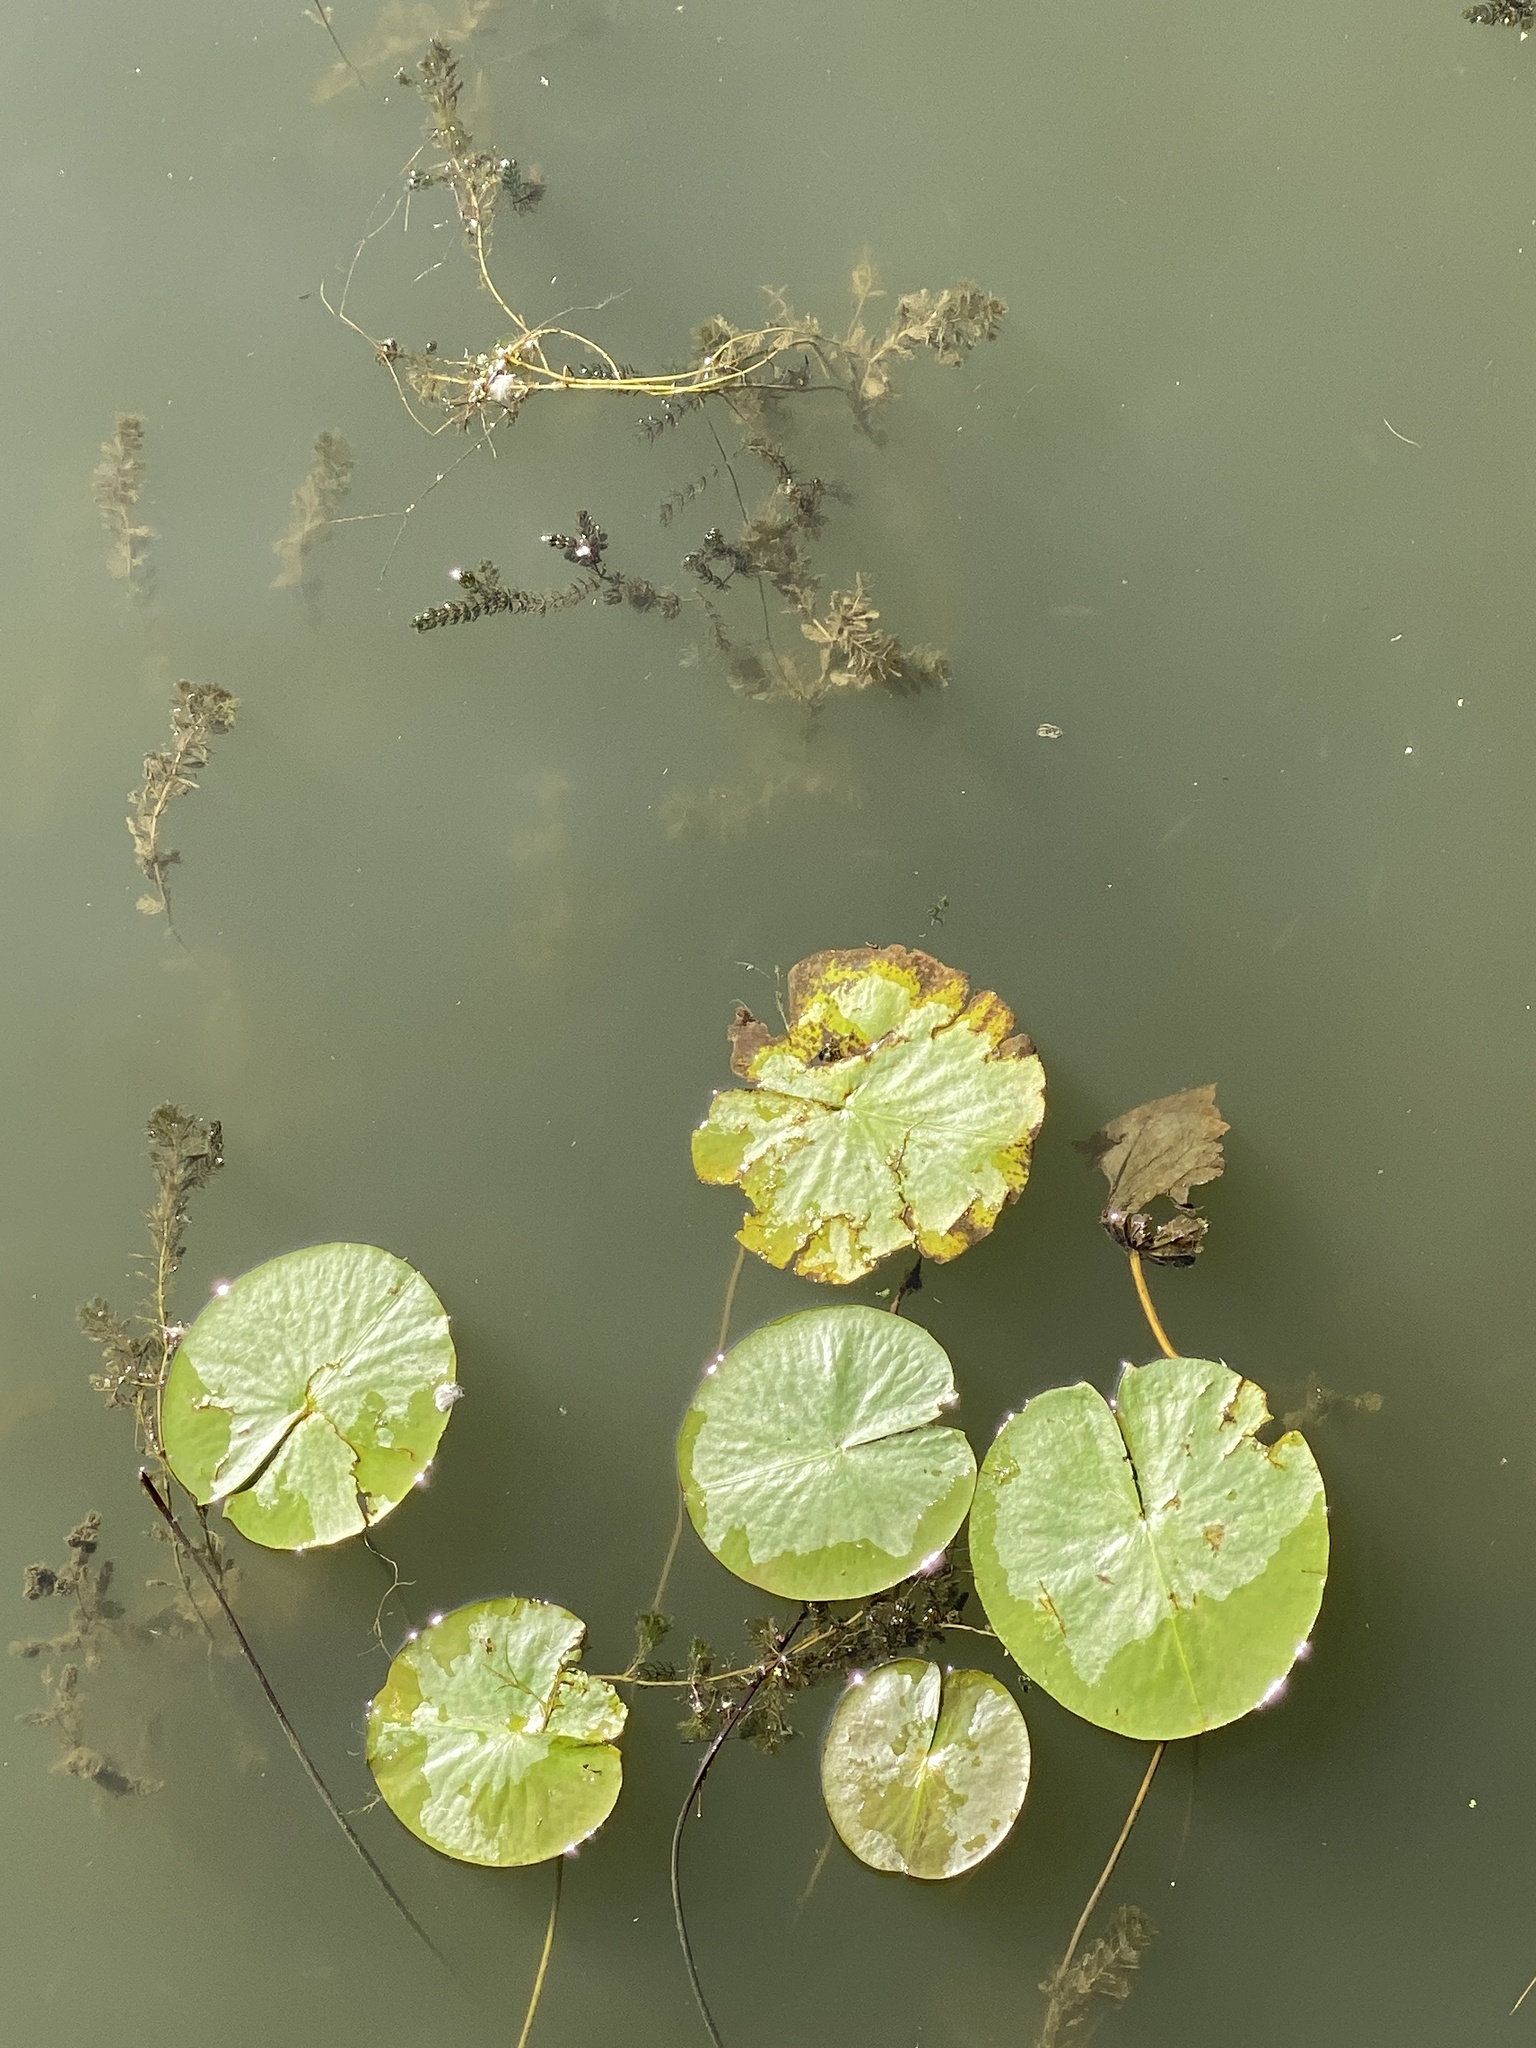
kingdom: Plantae
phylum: Tracheophyta
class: Magnoliopsida
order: Nymphaeales
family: Nymphaeaceae
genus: Nymphaea
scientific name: Nymphaea odorata
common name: Fragrant water-lily
